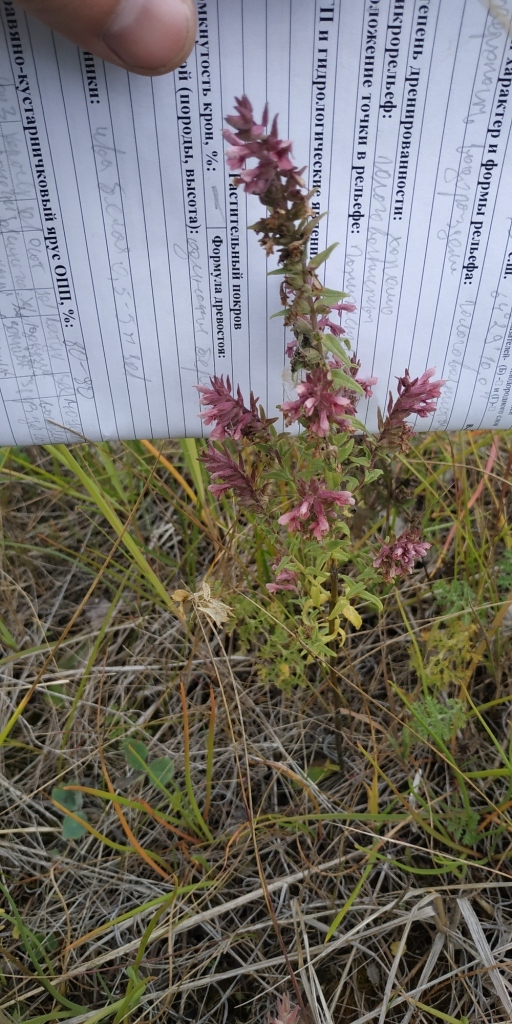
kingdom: Plantae
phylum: Tracheophyta
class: Magnoliopsida
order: Lamiales
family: Orobanchaceae
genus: Odontites
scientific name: Odontites vulgaris
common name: Broomrape
